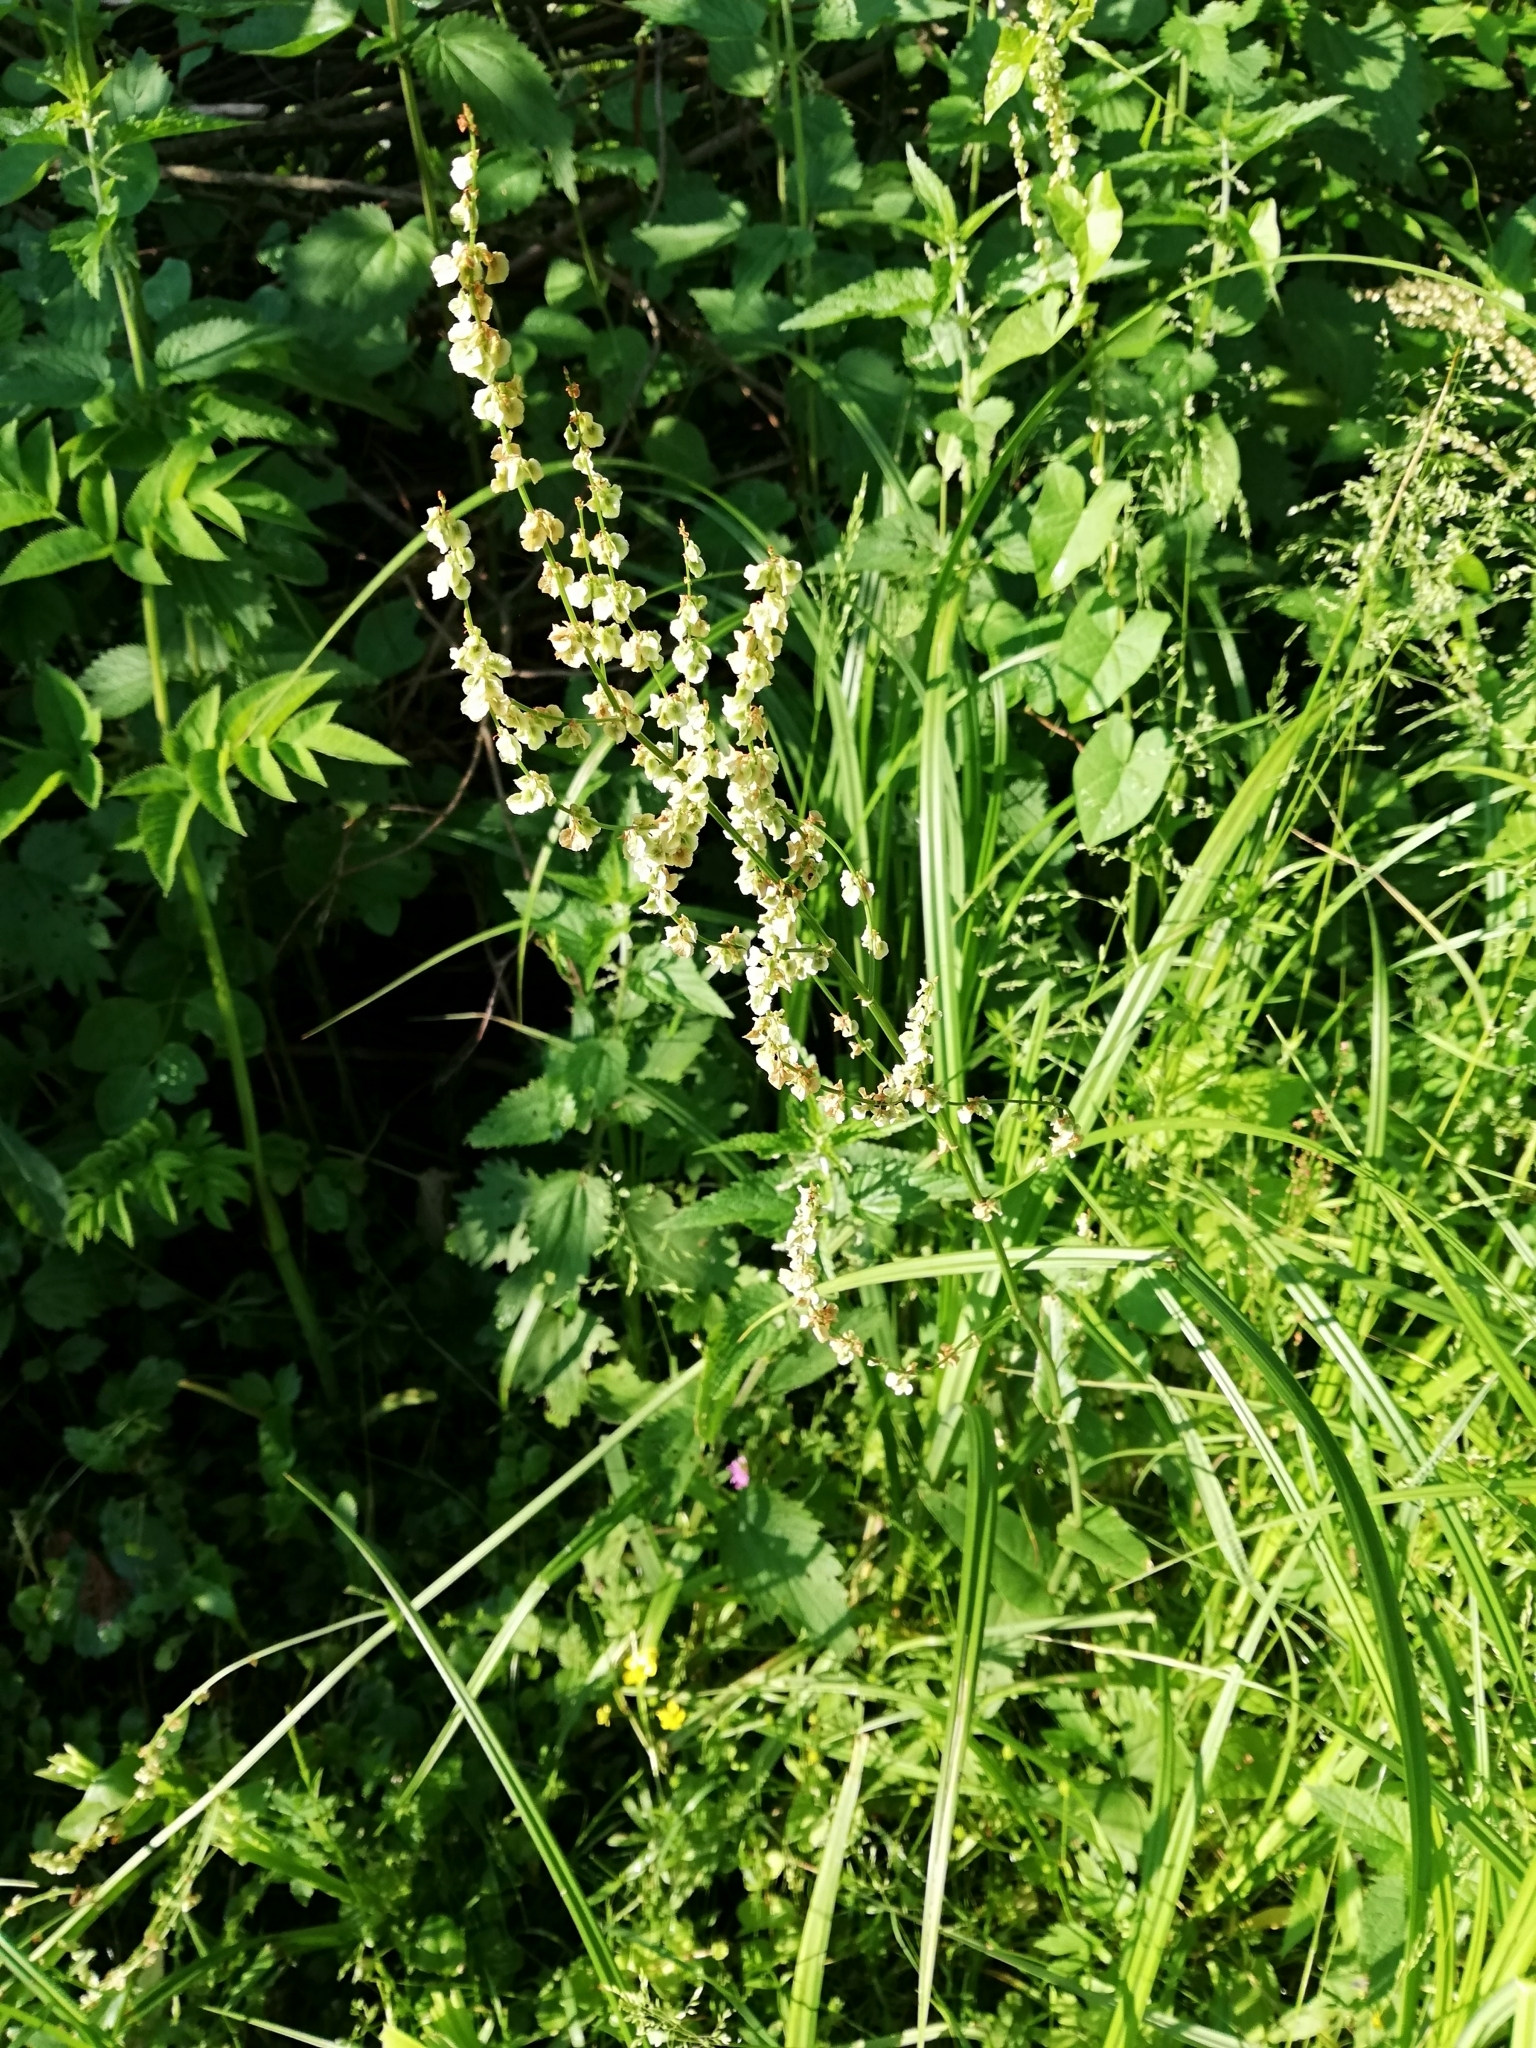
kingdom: Plantae
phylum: Tracheophyta
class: Magnoliopsida
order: Caryophyllales
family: Polygonaceae
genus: Rumex
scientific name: Rumex acetosa
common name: Garden sorrel
